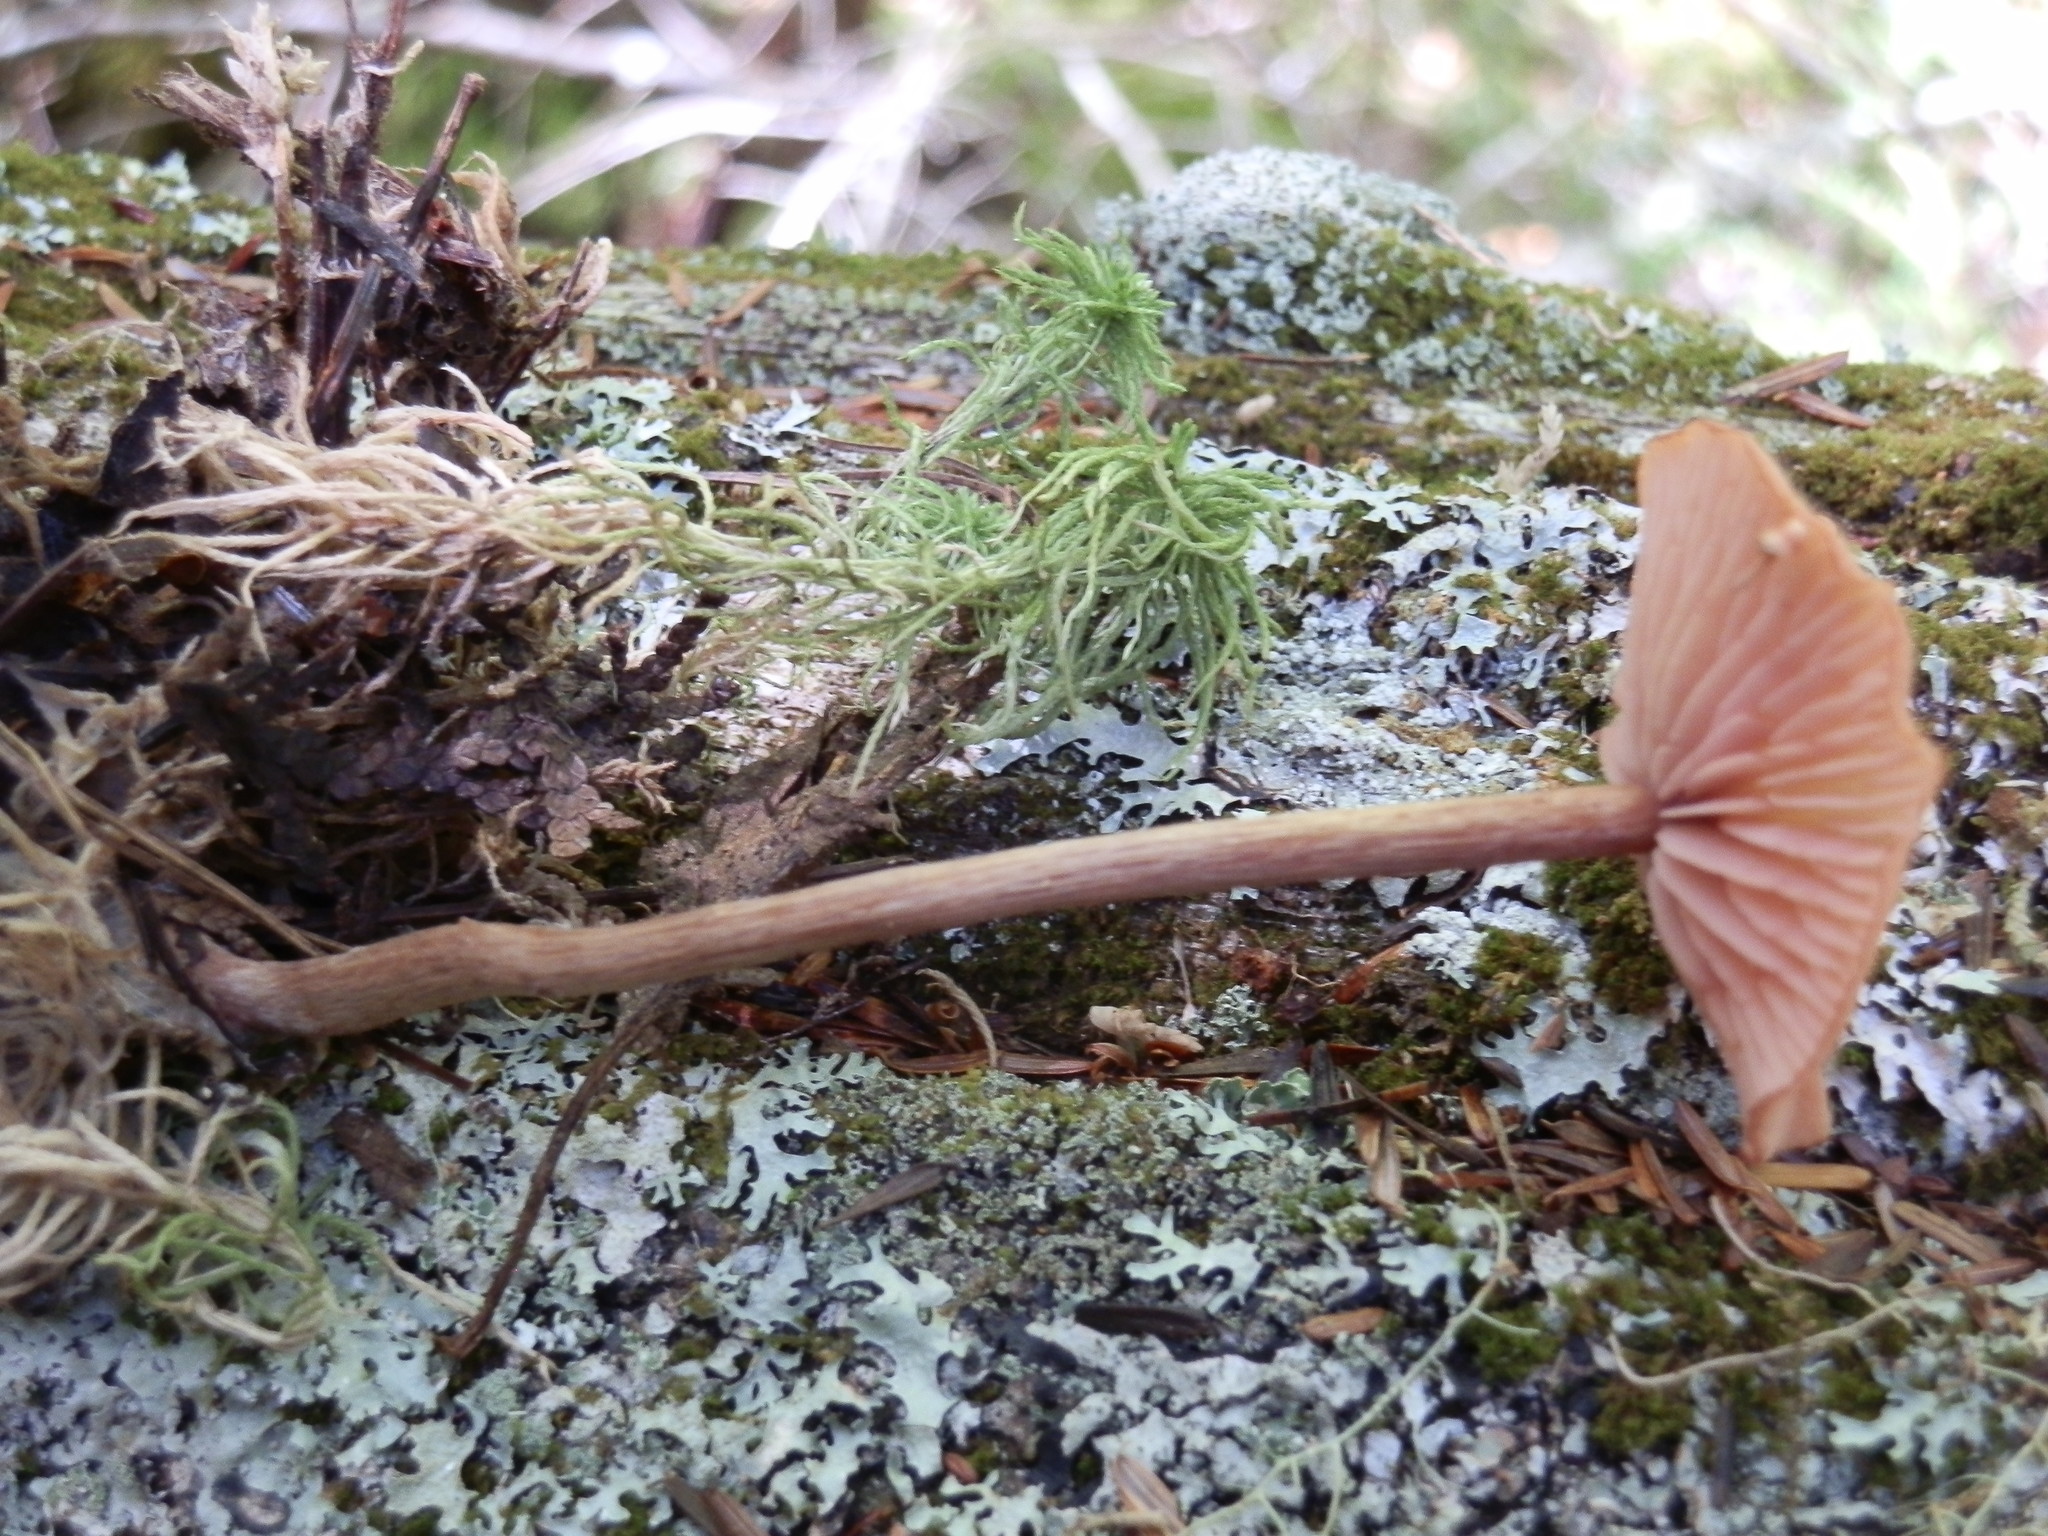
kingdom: Fungi
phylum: Basidiomycota
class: Agaricomycetes
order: Agaricales
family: Hydnangiaceae
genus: Laccaria
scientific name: Laccaria pumila
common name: Willow deceiver
